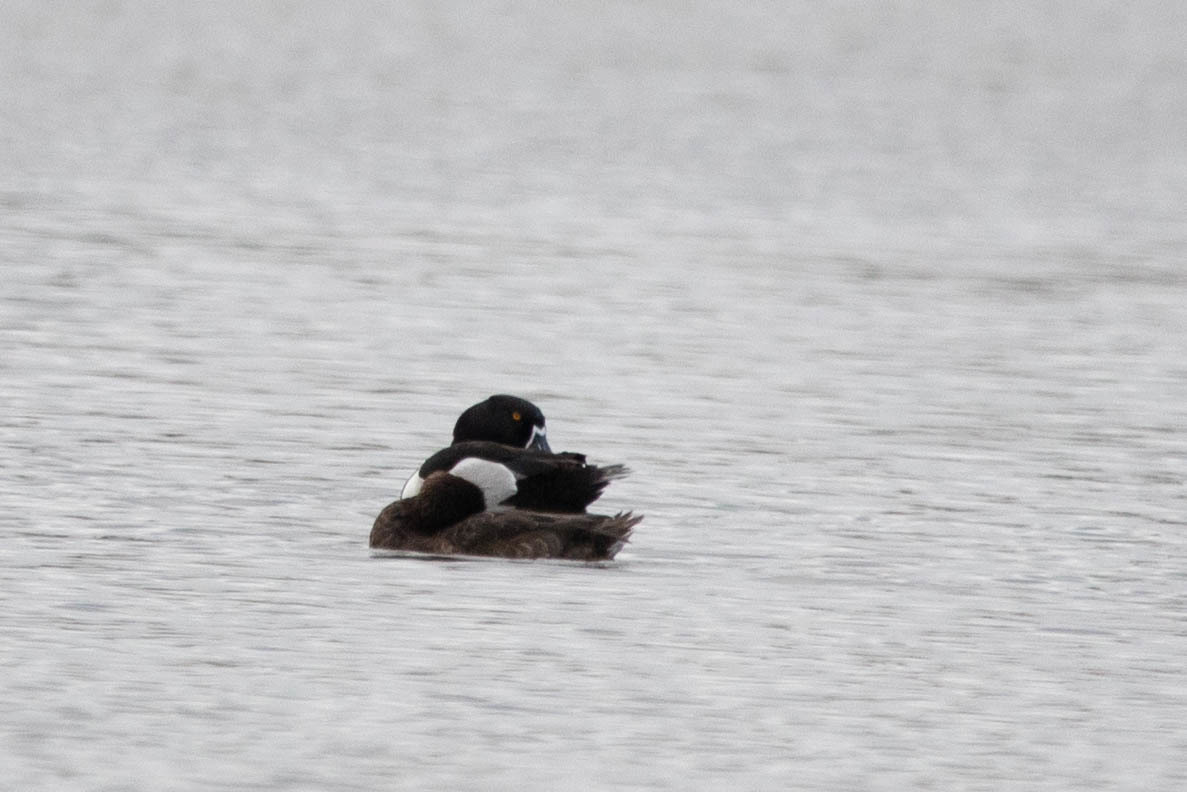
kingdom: Animalia
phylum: Chordata
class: Aves
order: Anseriformes
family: Anatidae
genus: Aythya
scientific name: Aythya collaris
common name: Ring-necked duck
